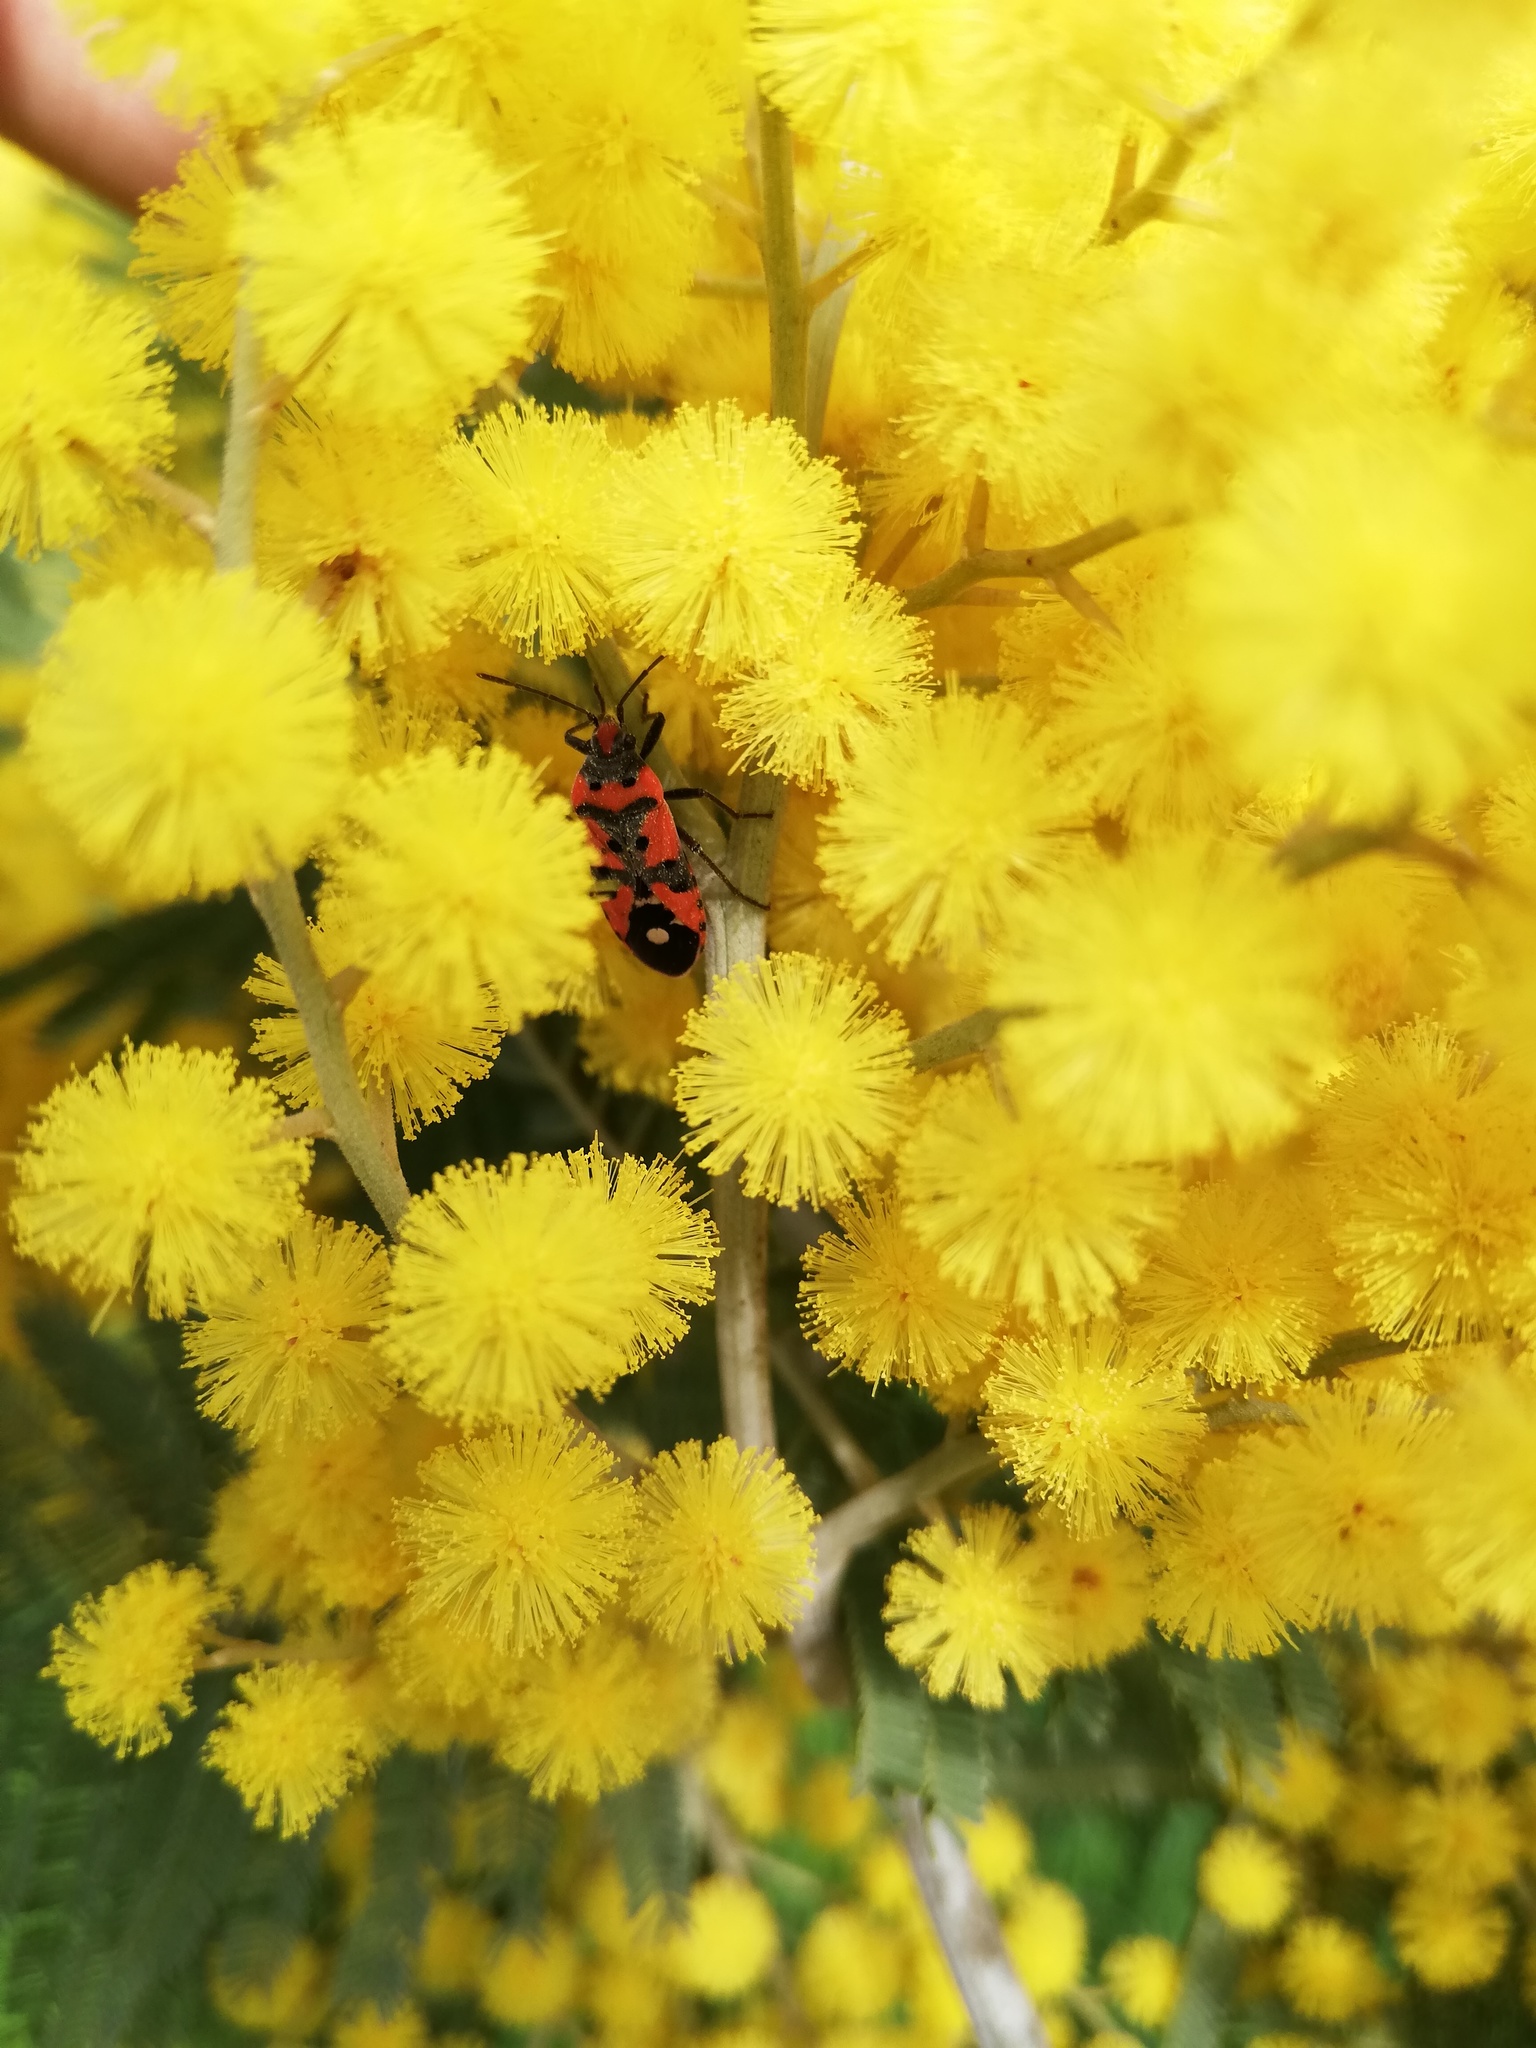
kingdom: Animalia
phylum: Arthropoda
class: Insecta
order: Hemiptera
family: Lygaeidae
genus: Lygaeus
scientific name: Lygaeus equestris
